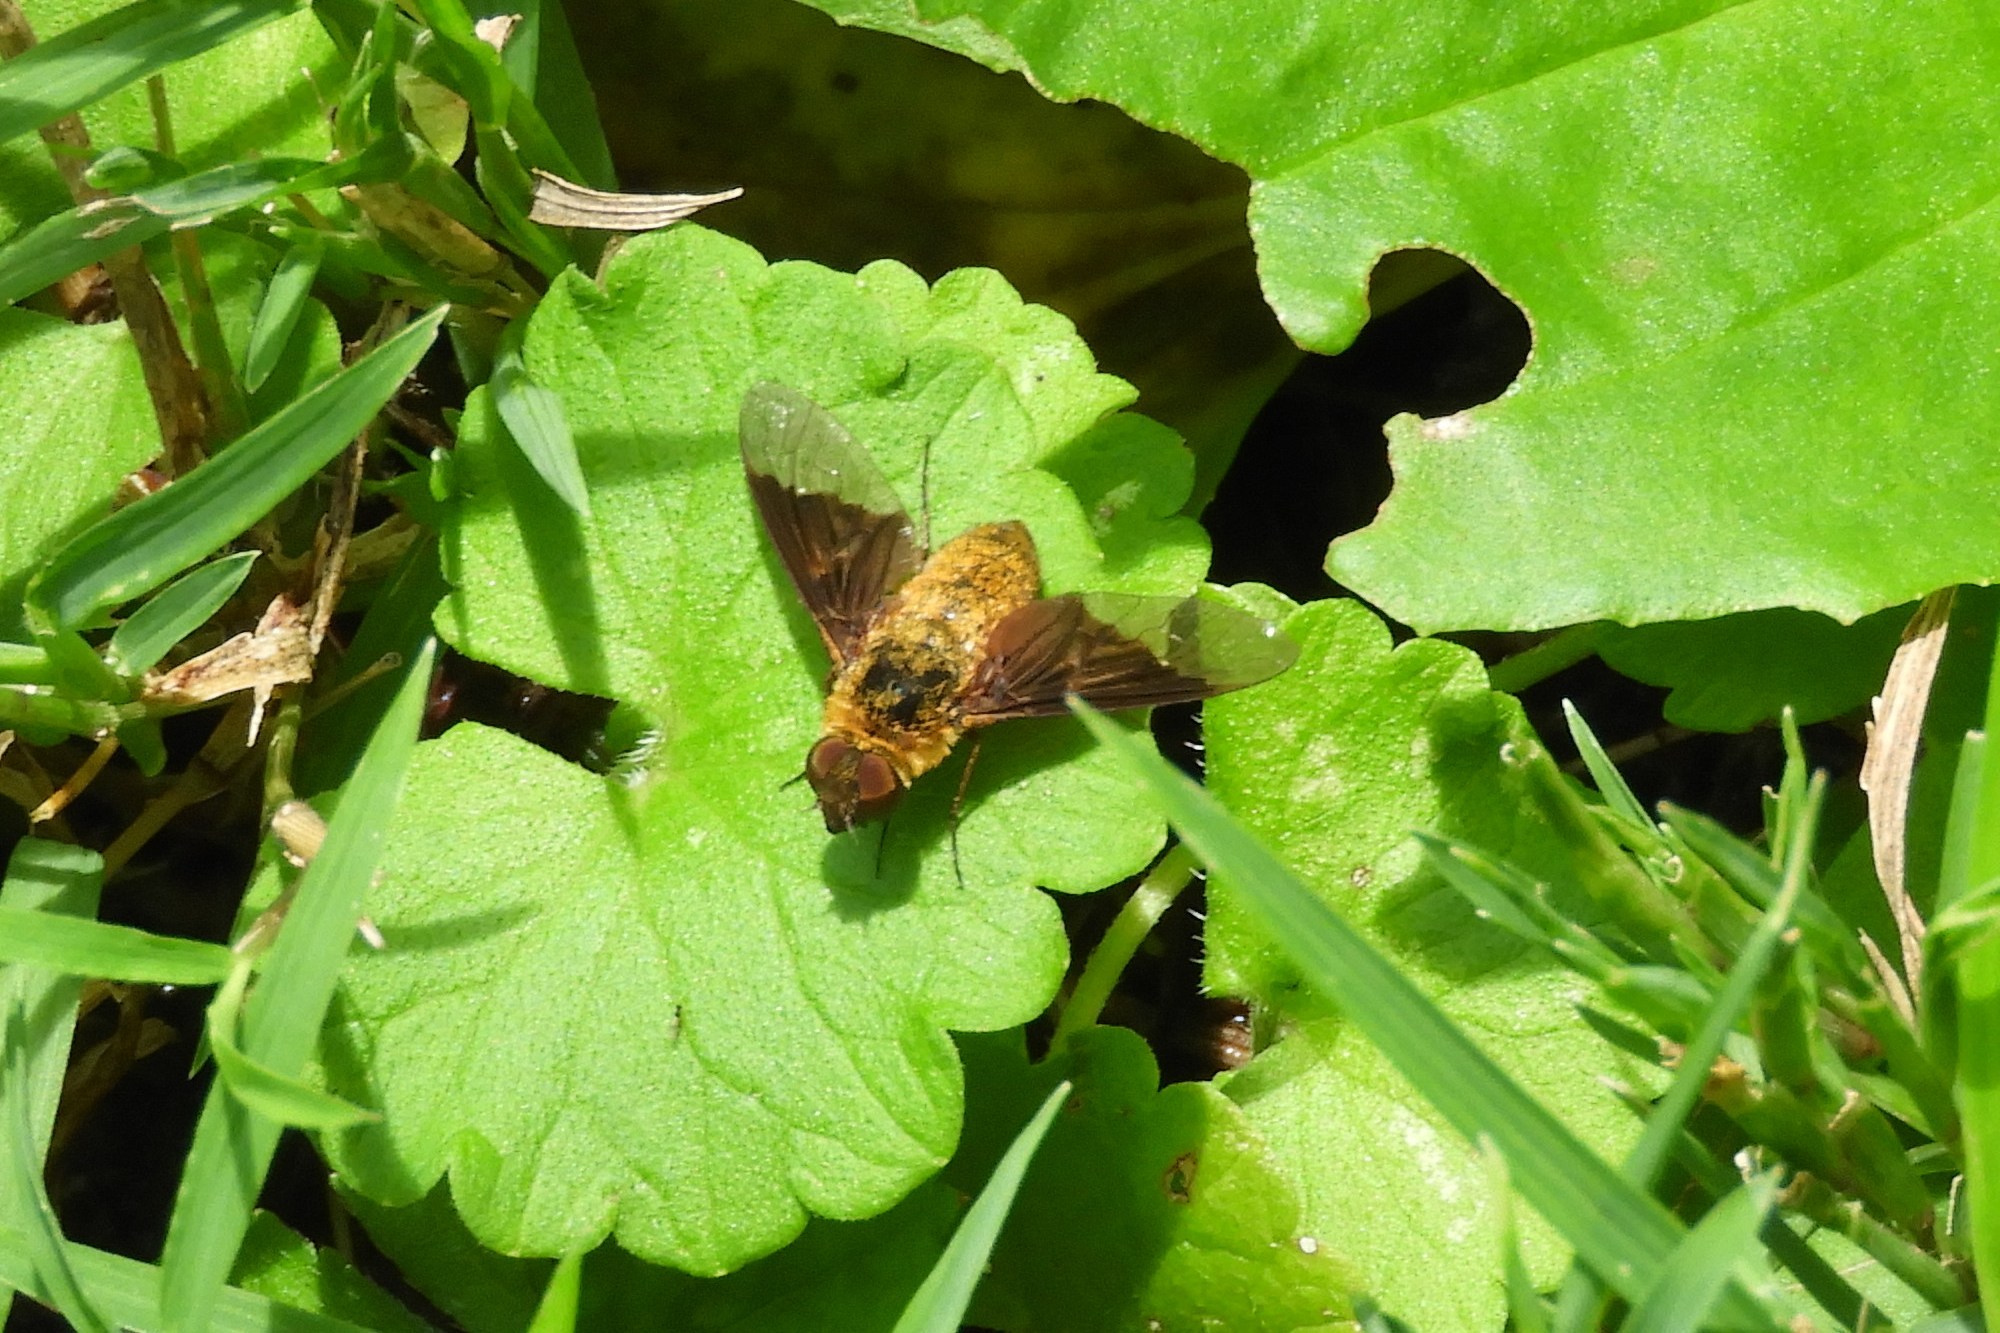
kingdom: Animalia
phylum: Arthropoda
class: Insecta
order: Diptera
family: Bombyliidae
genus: Chrysanthrax
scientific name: Chrysanthrax cypris
